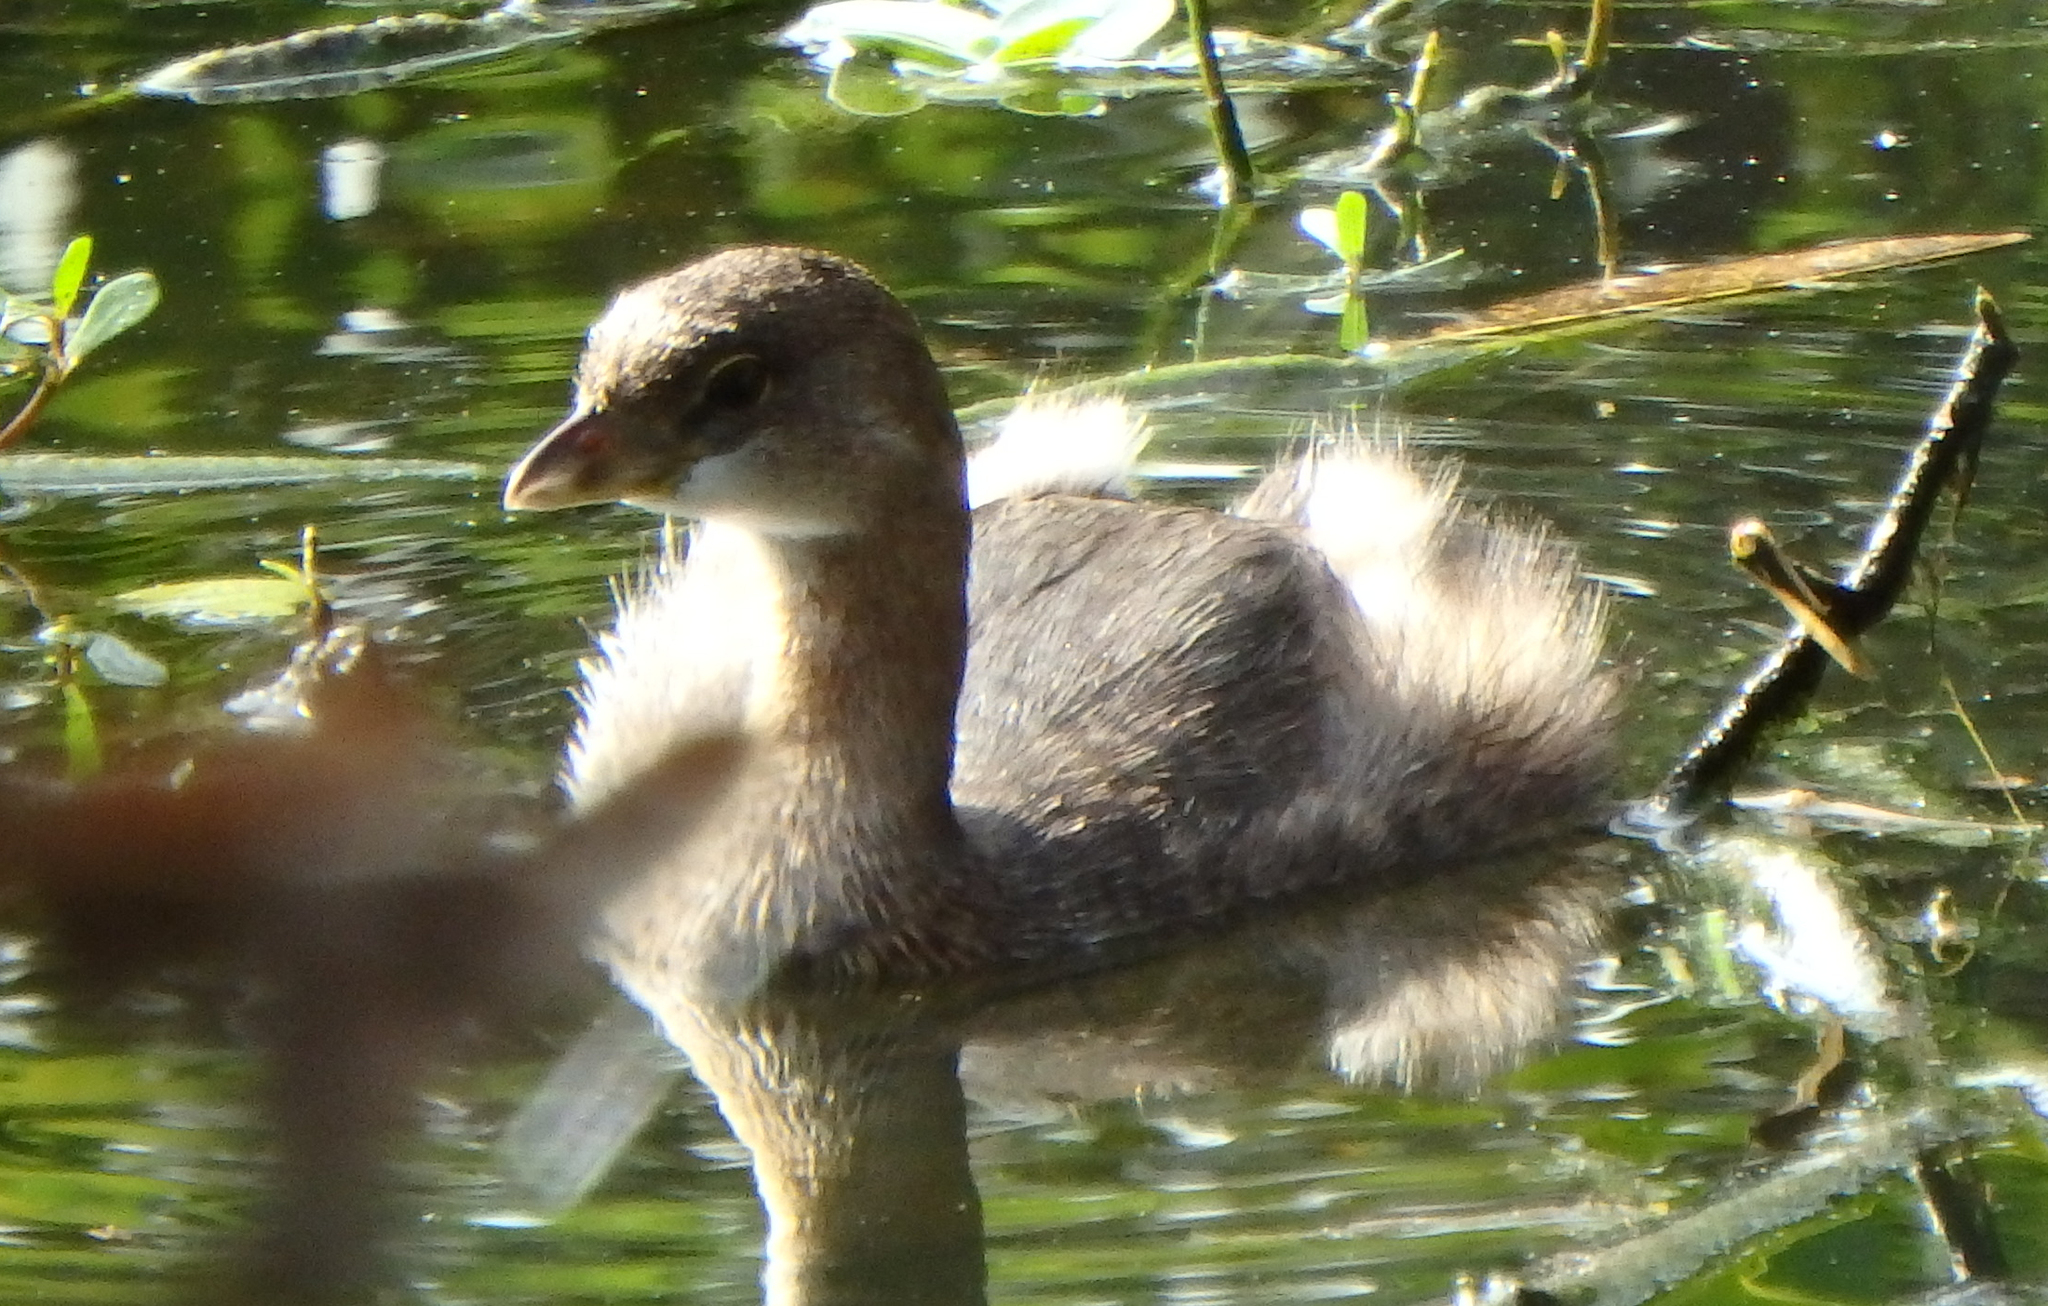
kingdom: Animalia
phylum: Chordata
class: Aves
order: Podicipediformes
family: Podicipedidae
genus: Podilymbus
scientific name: Podilymbus podiceps
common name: Pied-billed grebe
